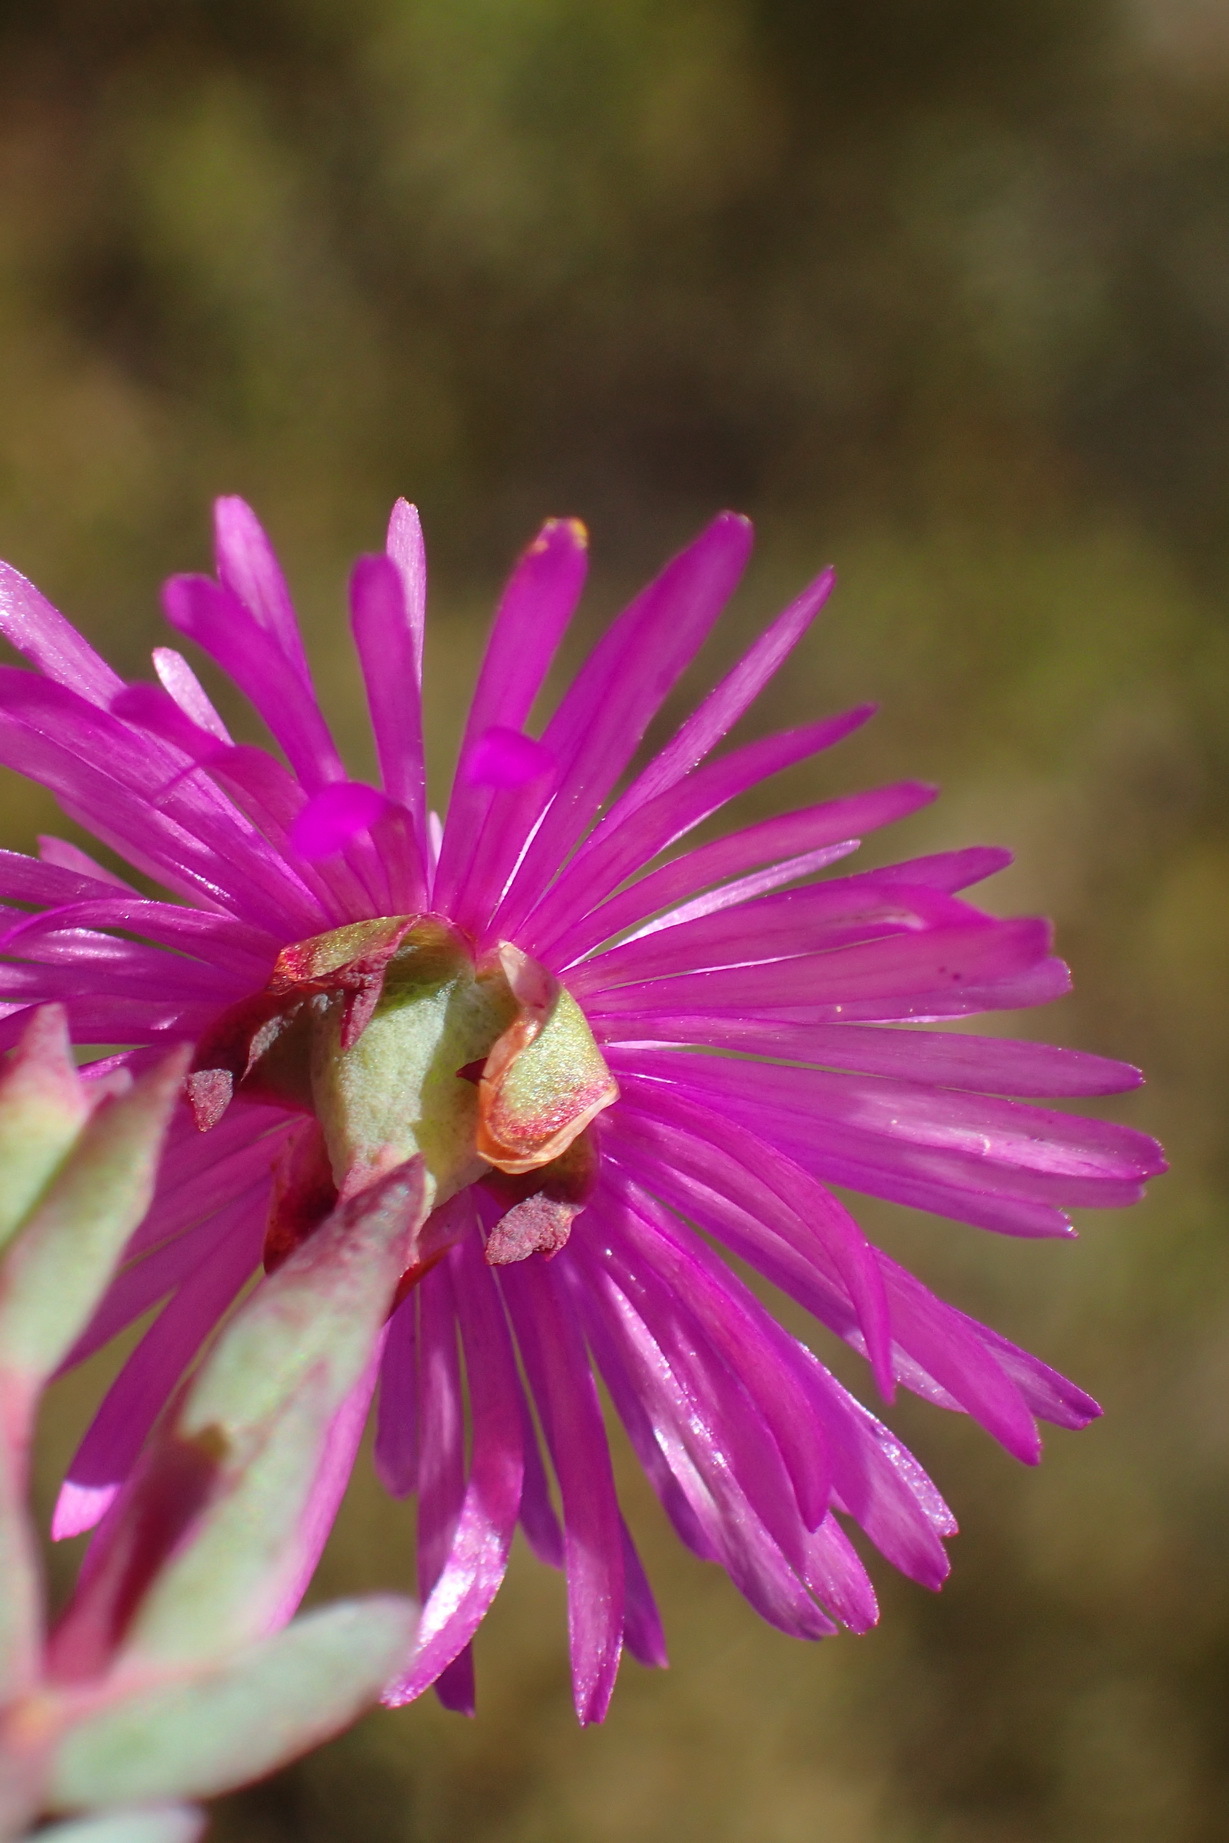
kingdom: Plantae
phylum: Tracheophyta
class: Magnoliopsida
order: Caryophyllales
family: Aizoaceae
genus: Lampranthus
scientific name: Lampranthus swartbergensis
